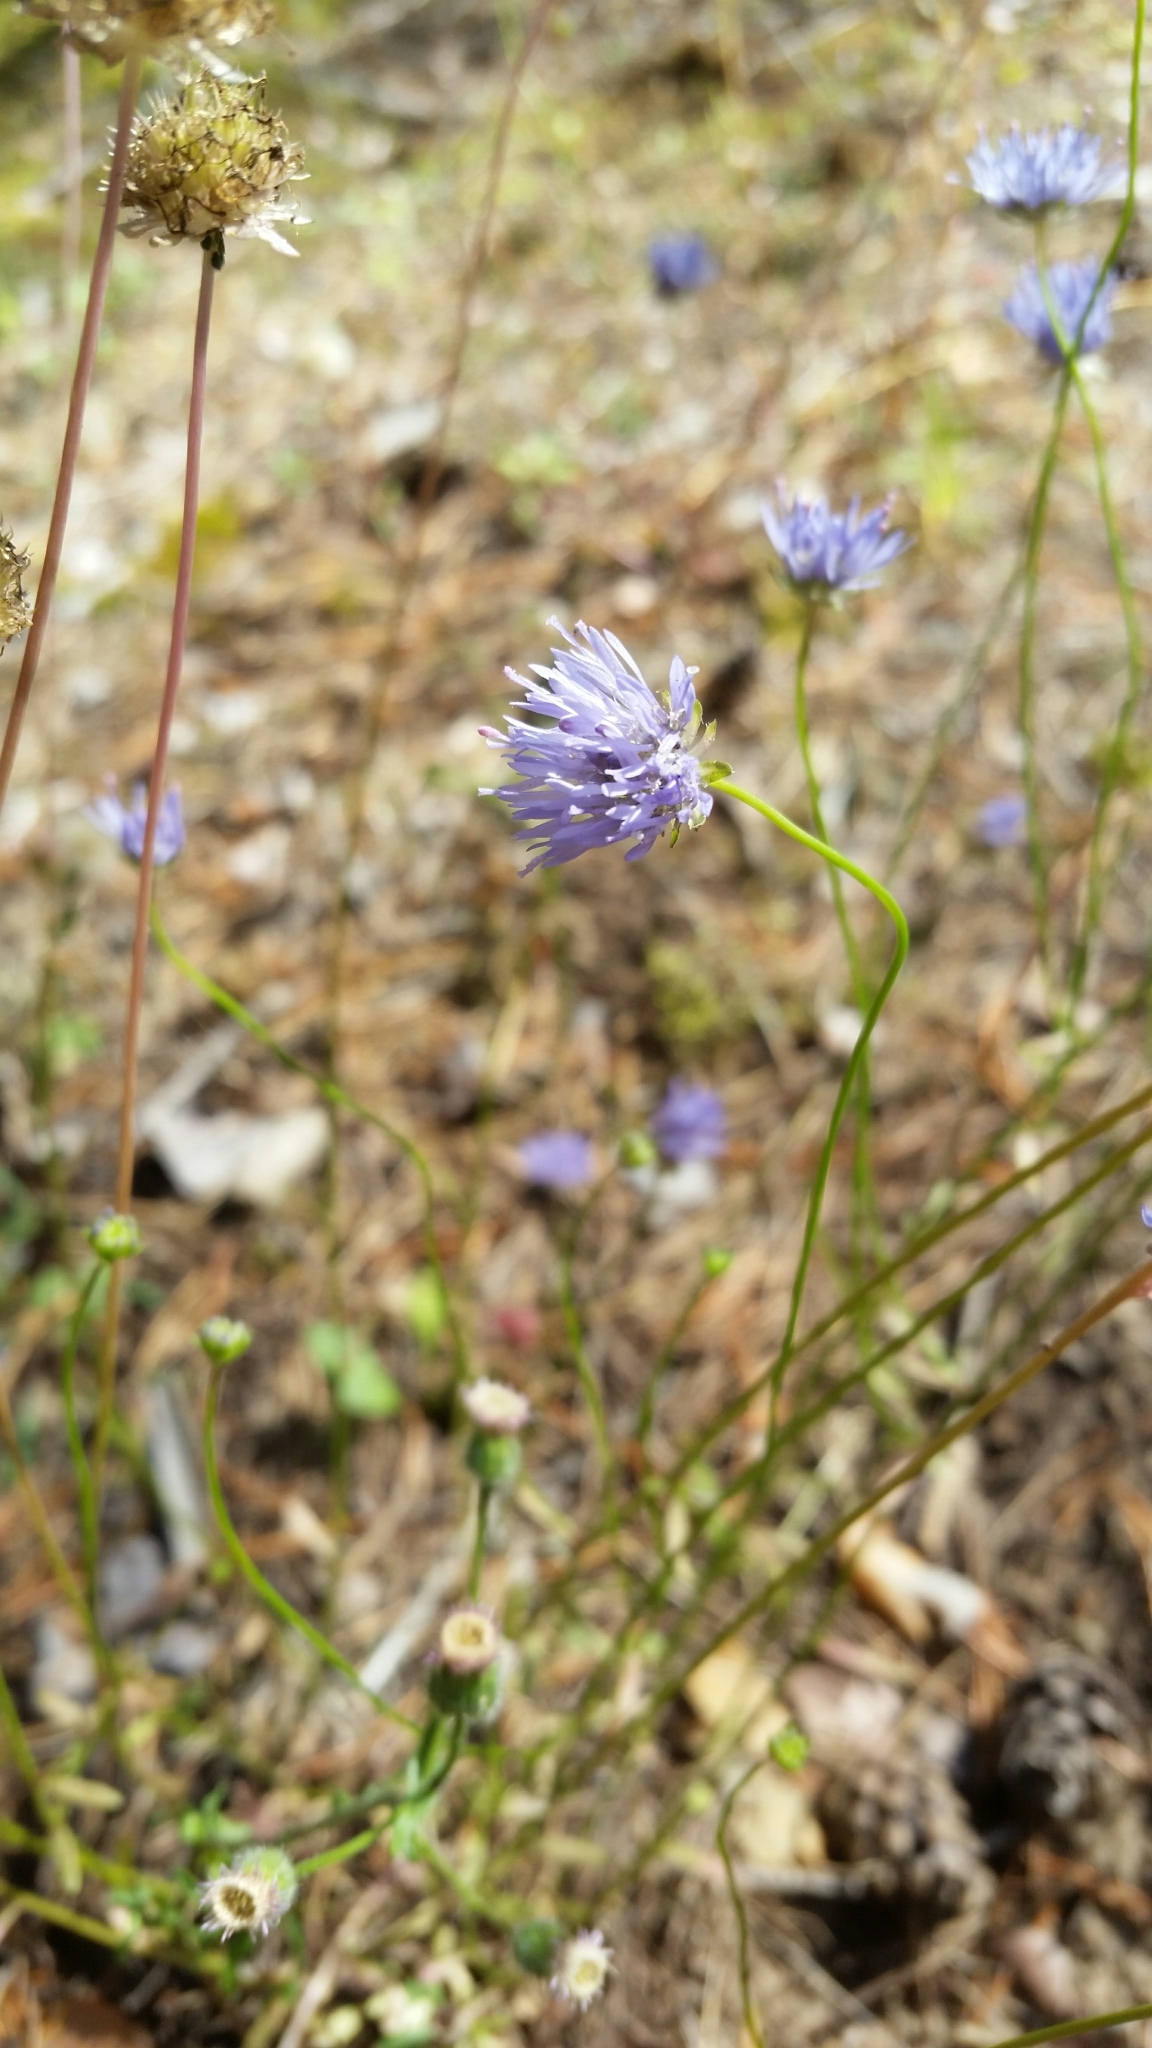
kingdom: Plantae
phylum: Tracheophyta
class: Magnoliopsida
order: Asterales
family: Campanulaceae
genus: Jasione
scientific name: Jasione montana
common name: Sheep's-bit
